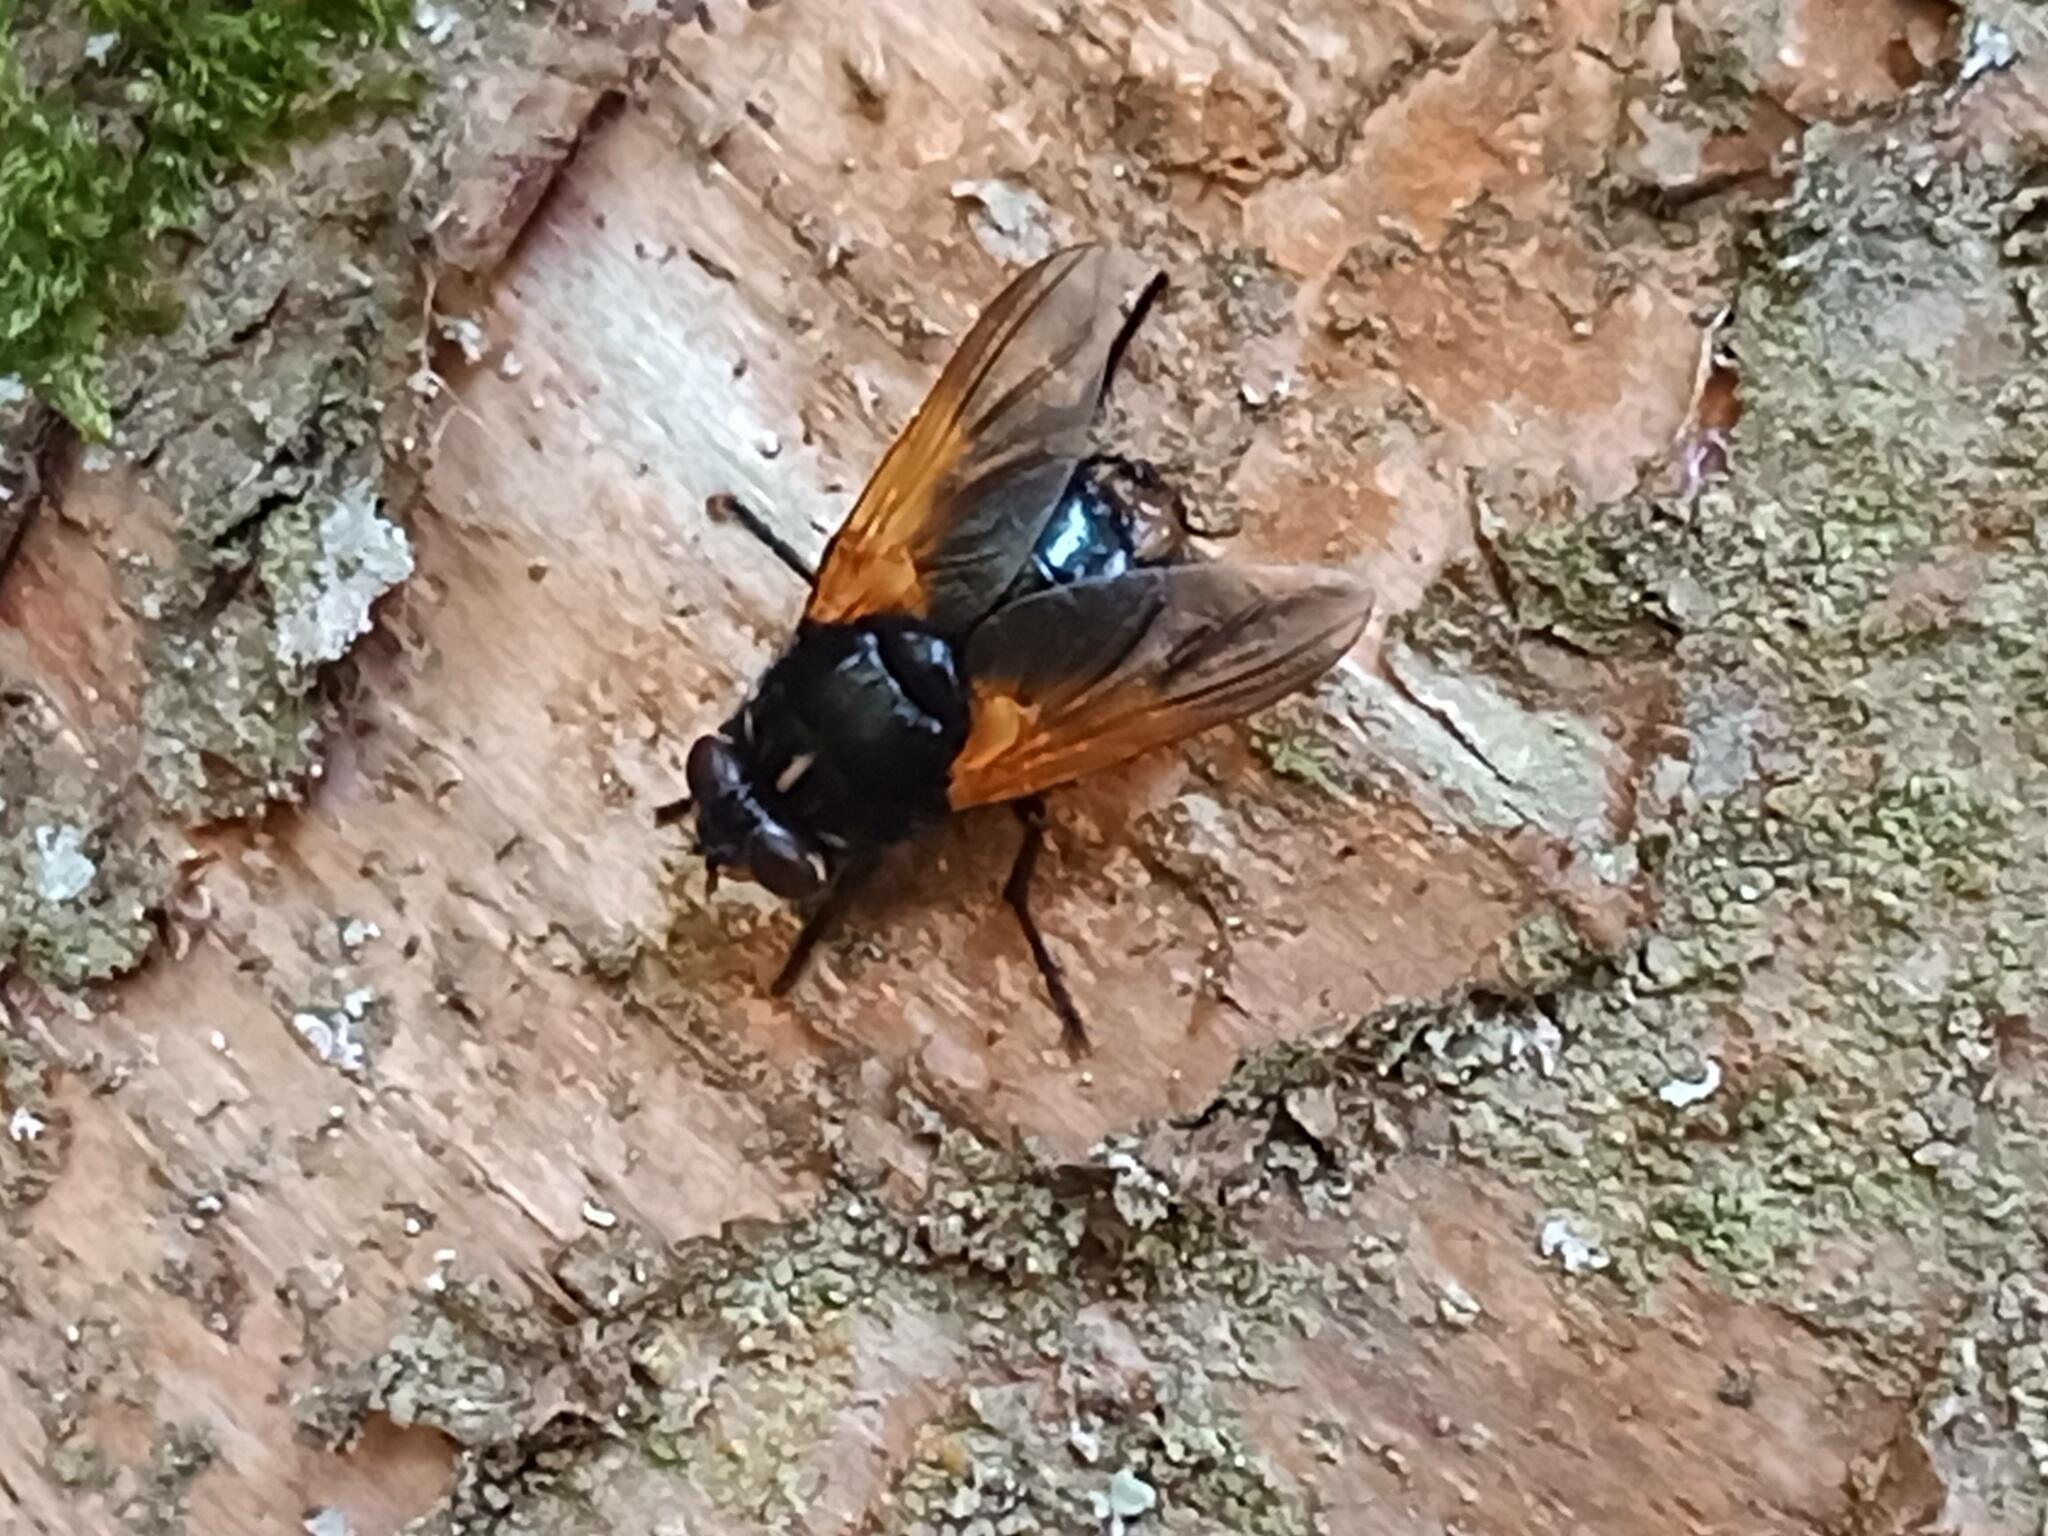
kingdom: Animalia
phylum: Arthropoda
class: Insecta
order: Diptera
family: Muscidae
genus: Mesembrina
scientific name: Mesembrina meridiana
